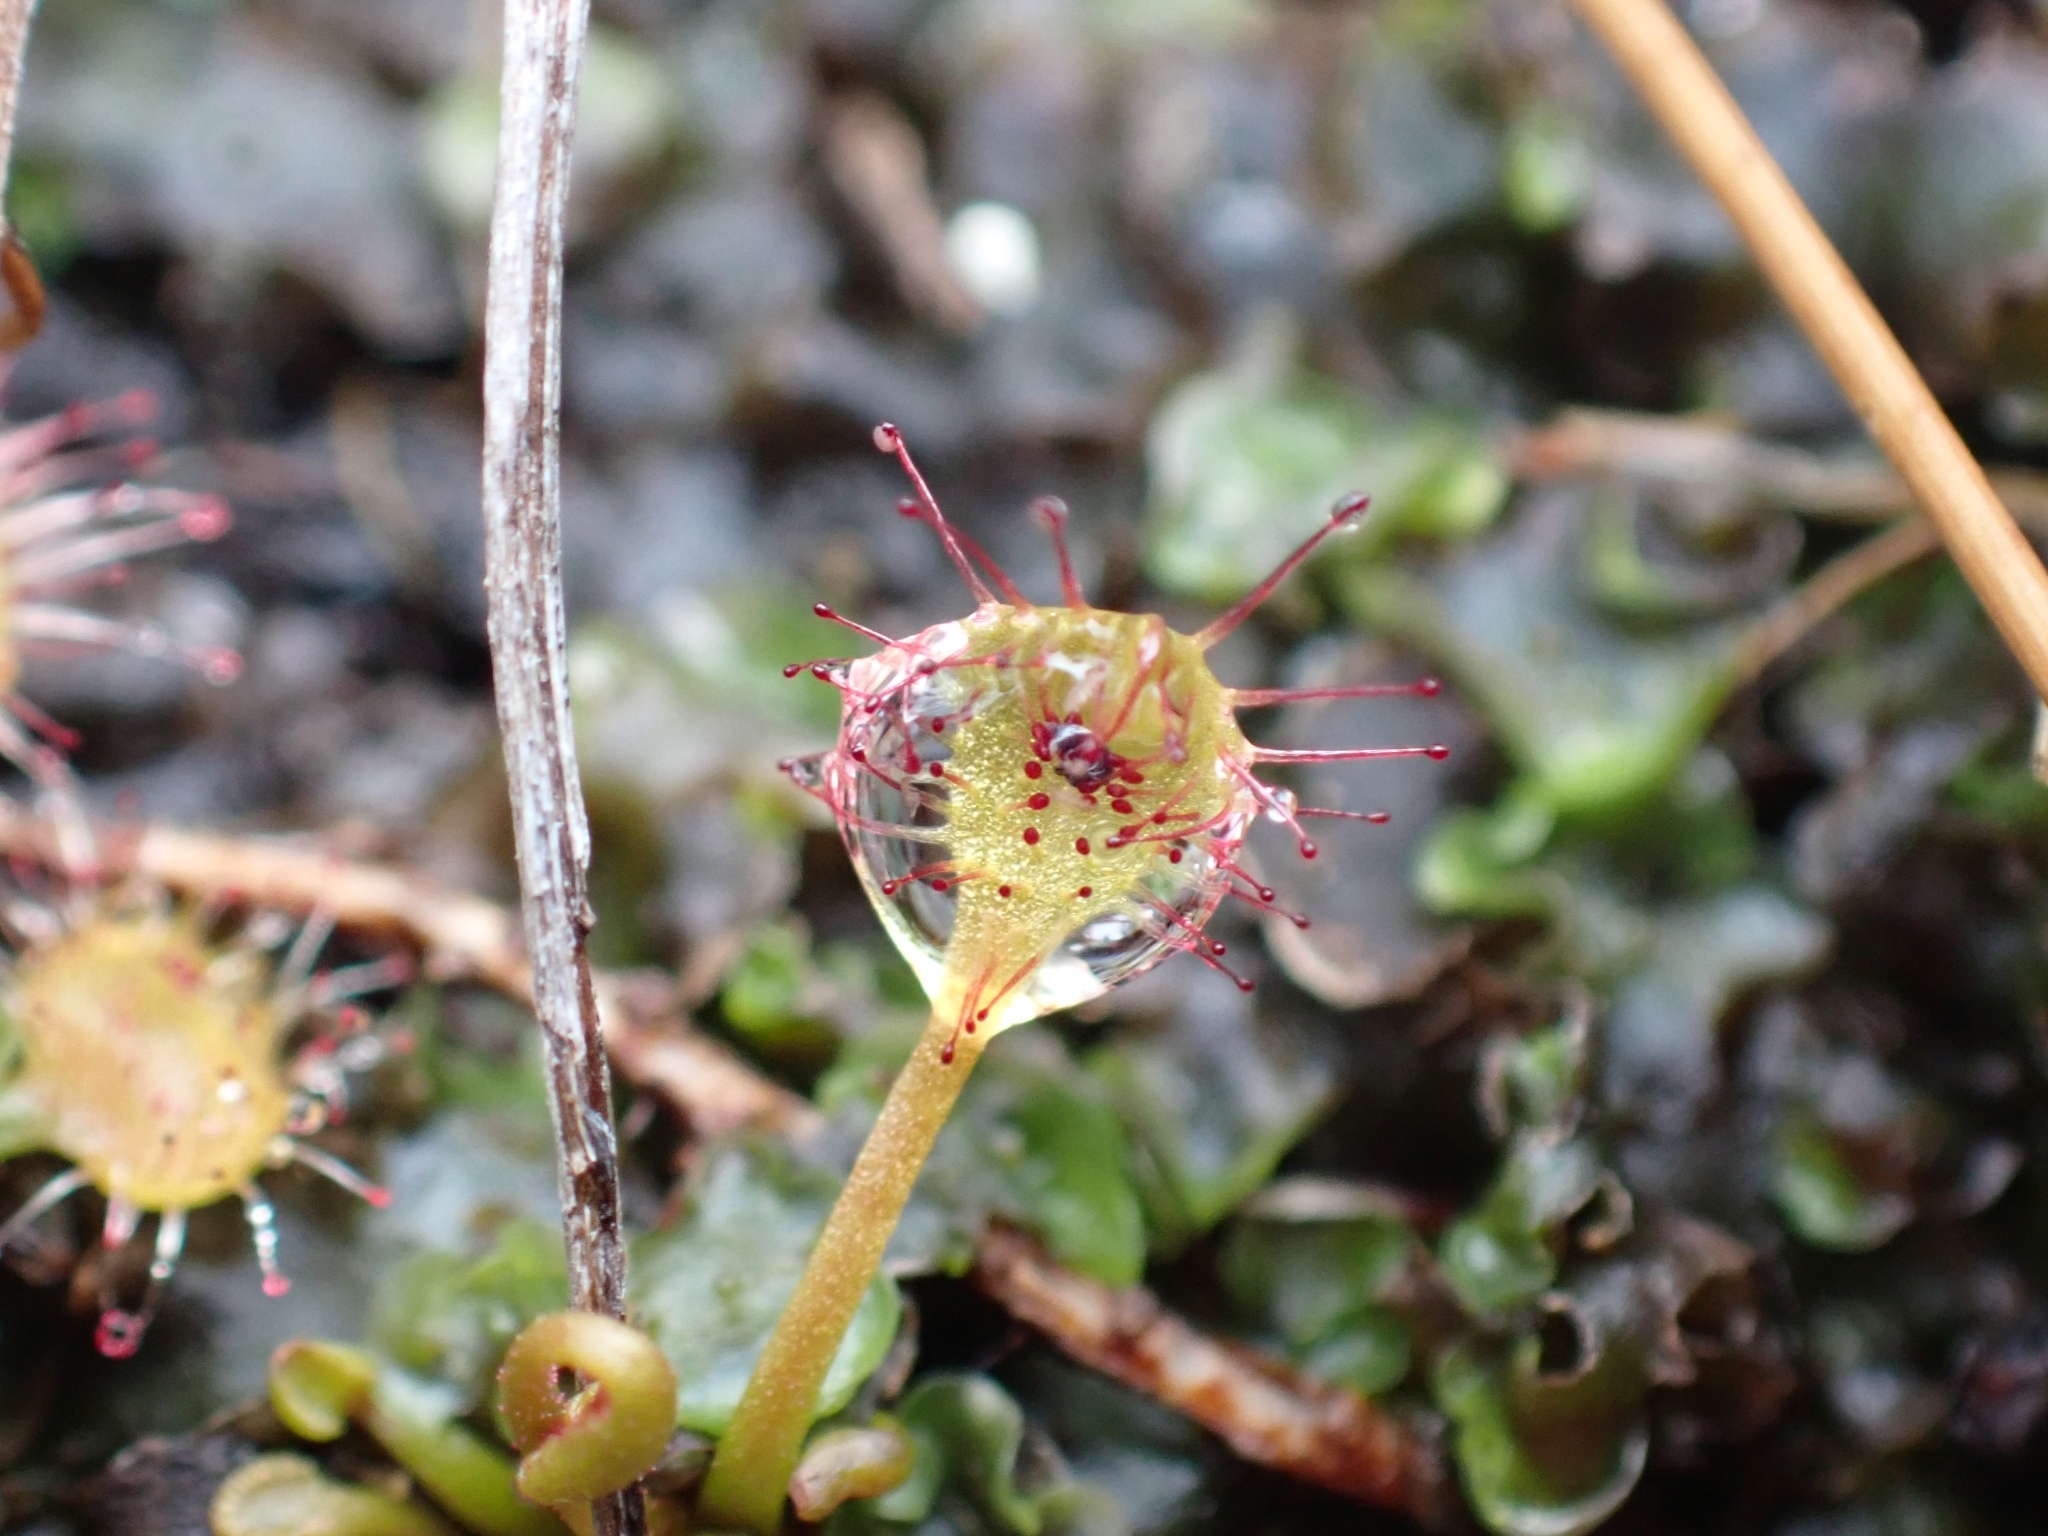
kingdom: Plantae
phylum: Tracheophyta
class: Magnoliopsida
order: Caryophyllales
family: Droseraceae
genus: Drosera
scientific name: Drosera rotundifolia
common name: Round-leaved sundew
